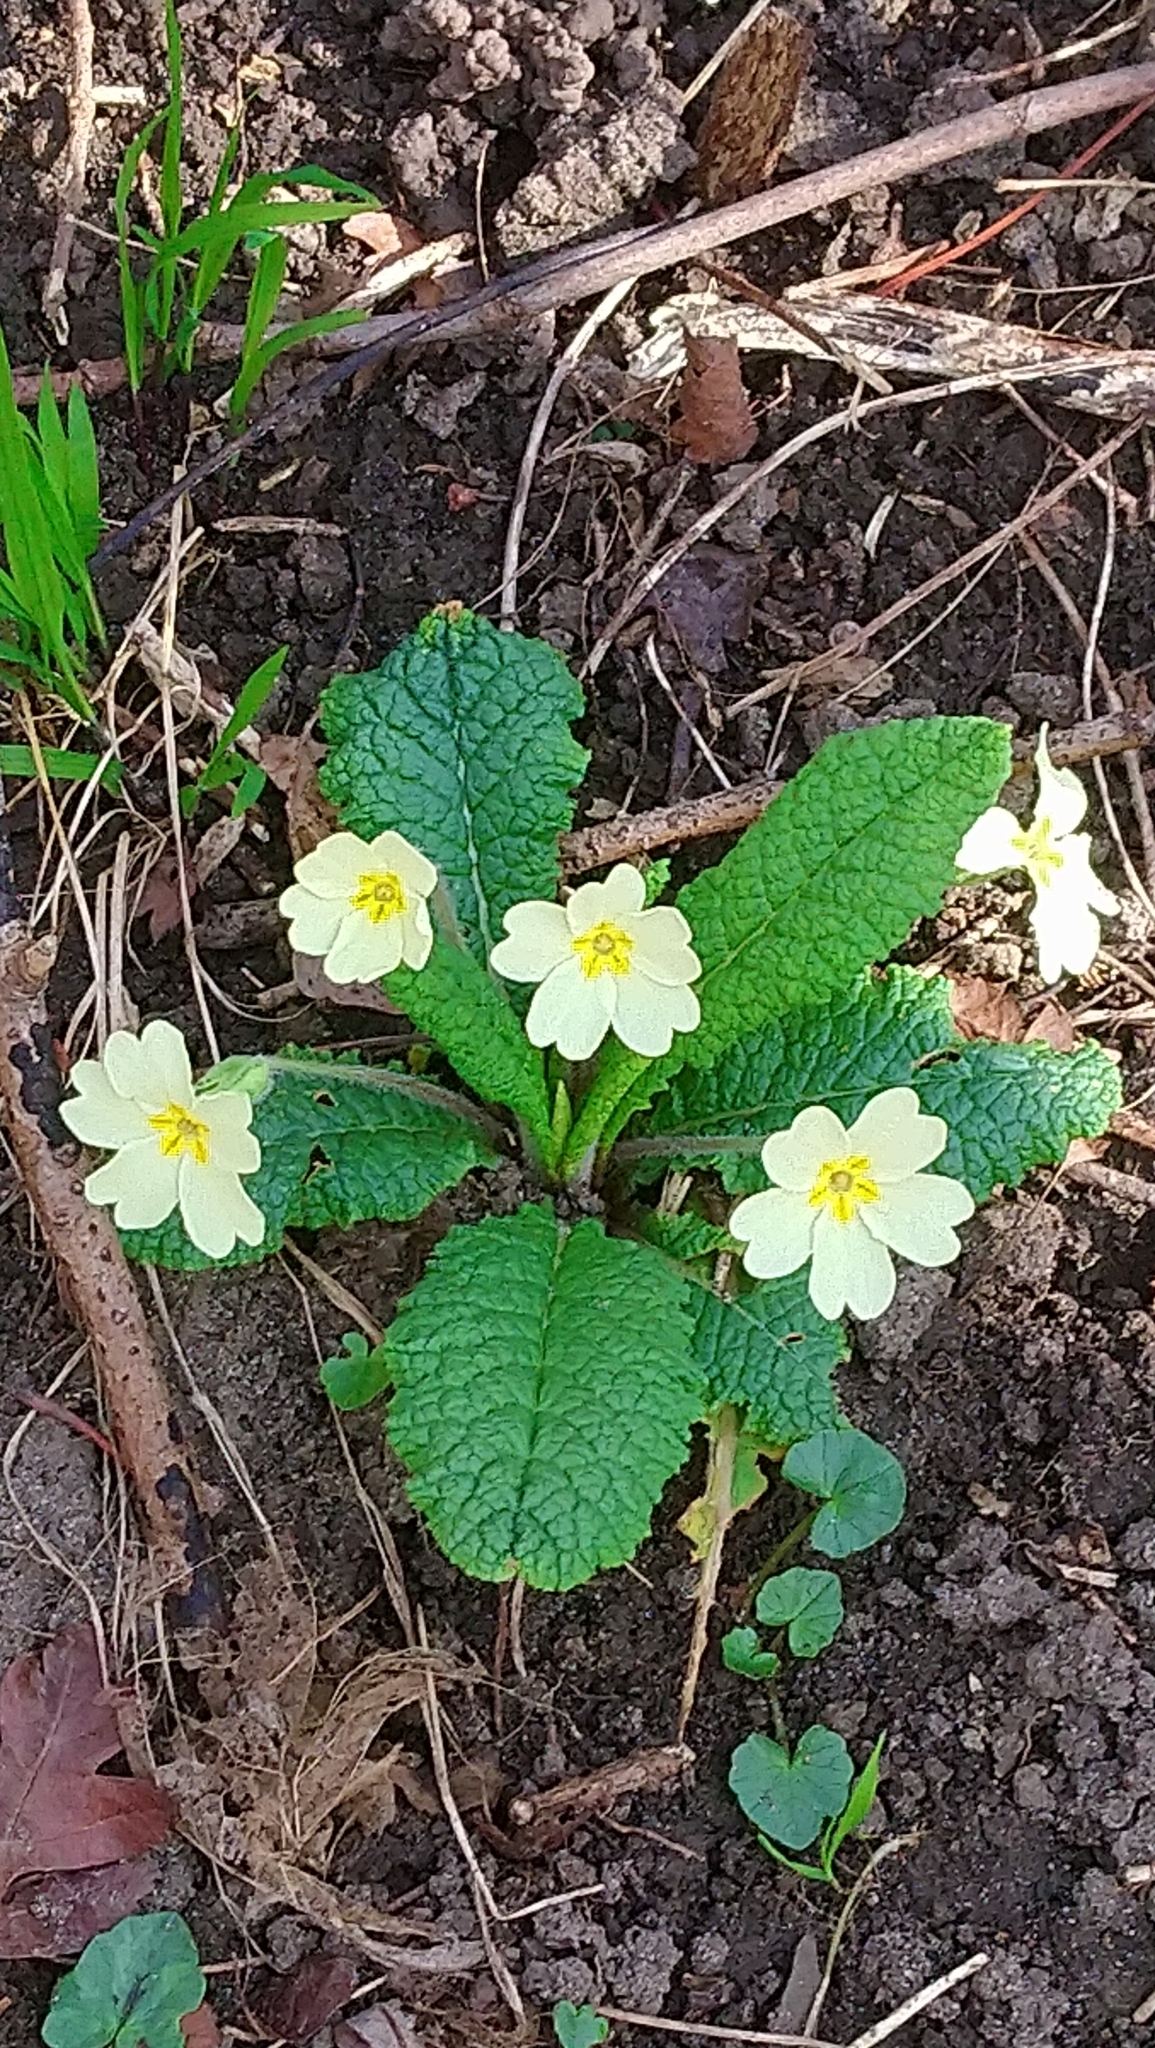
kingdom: Plantae
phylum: Tracheophyta
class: Magnoliopsida
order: Ericales
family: Primulaceae
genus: Primula
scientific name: Primula vulgaris
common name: Primrose
